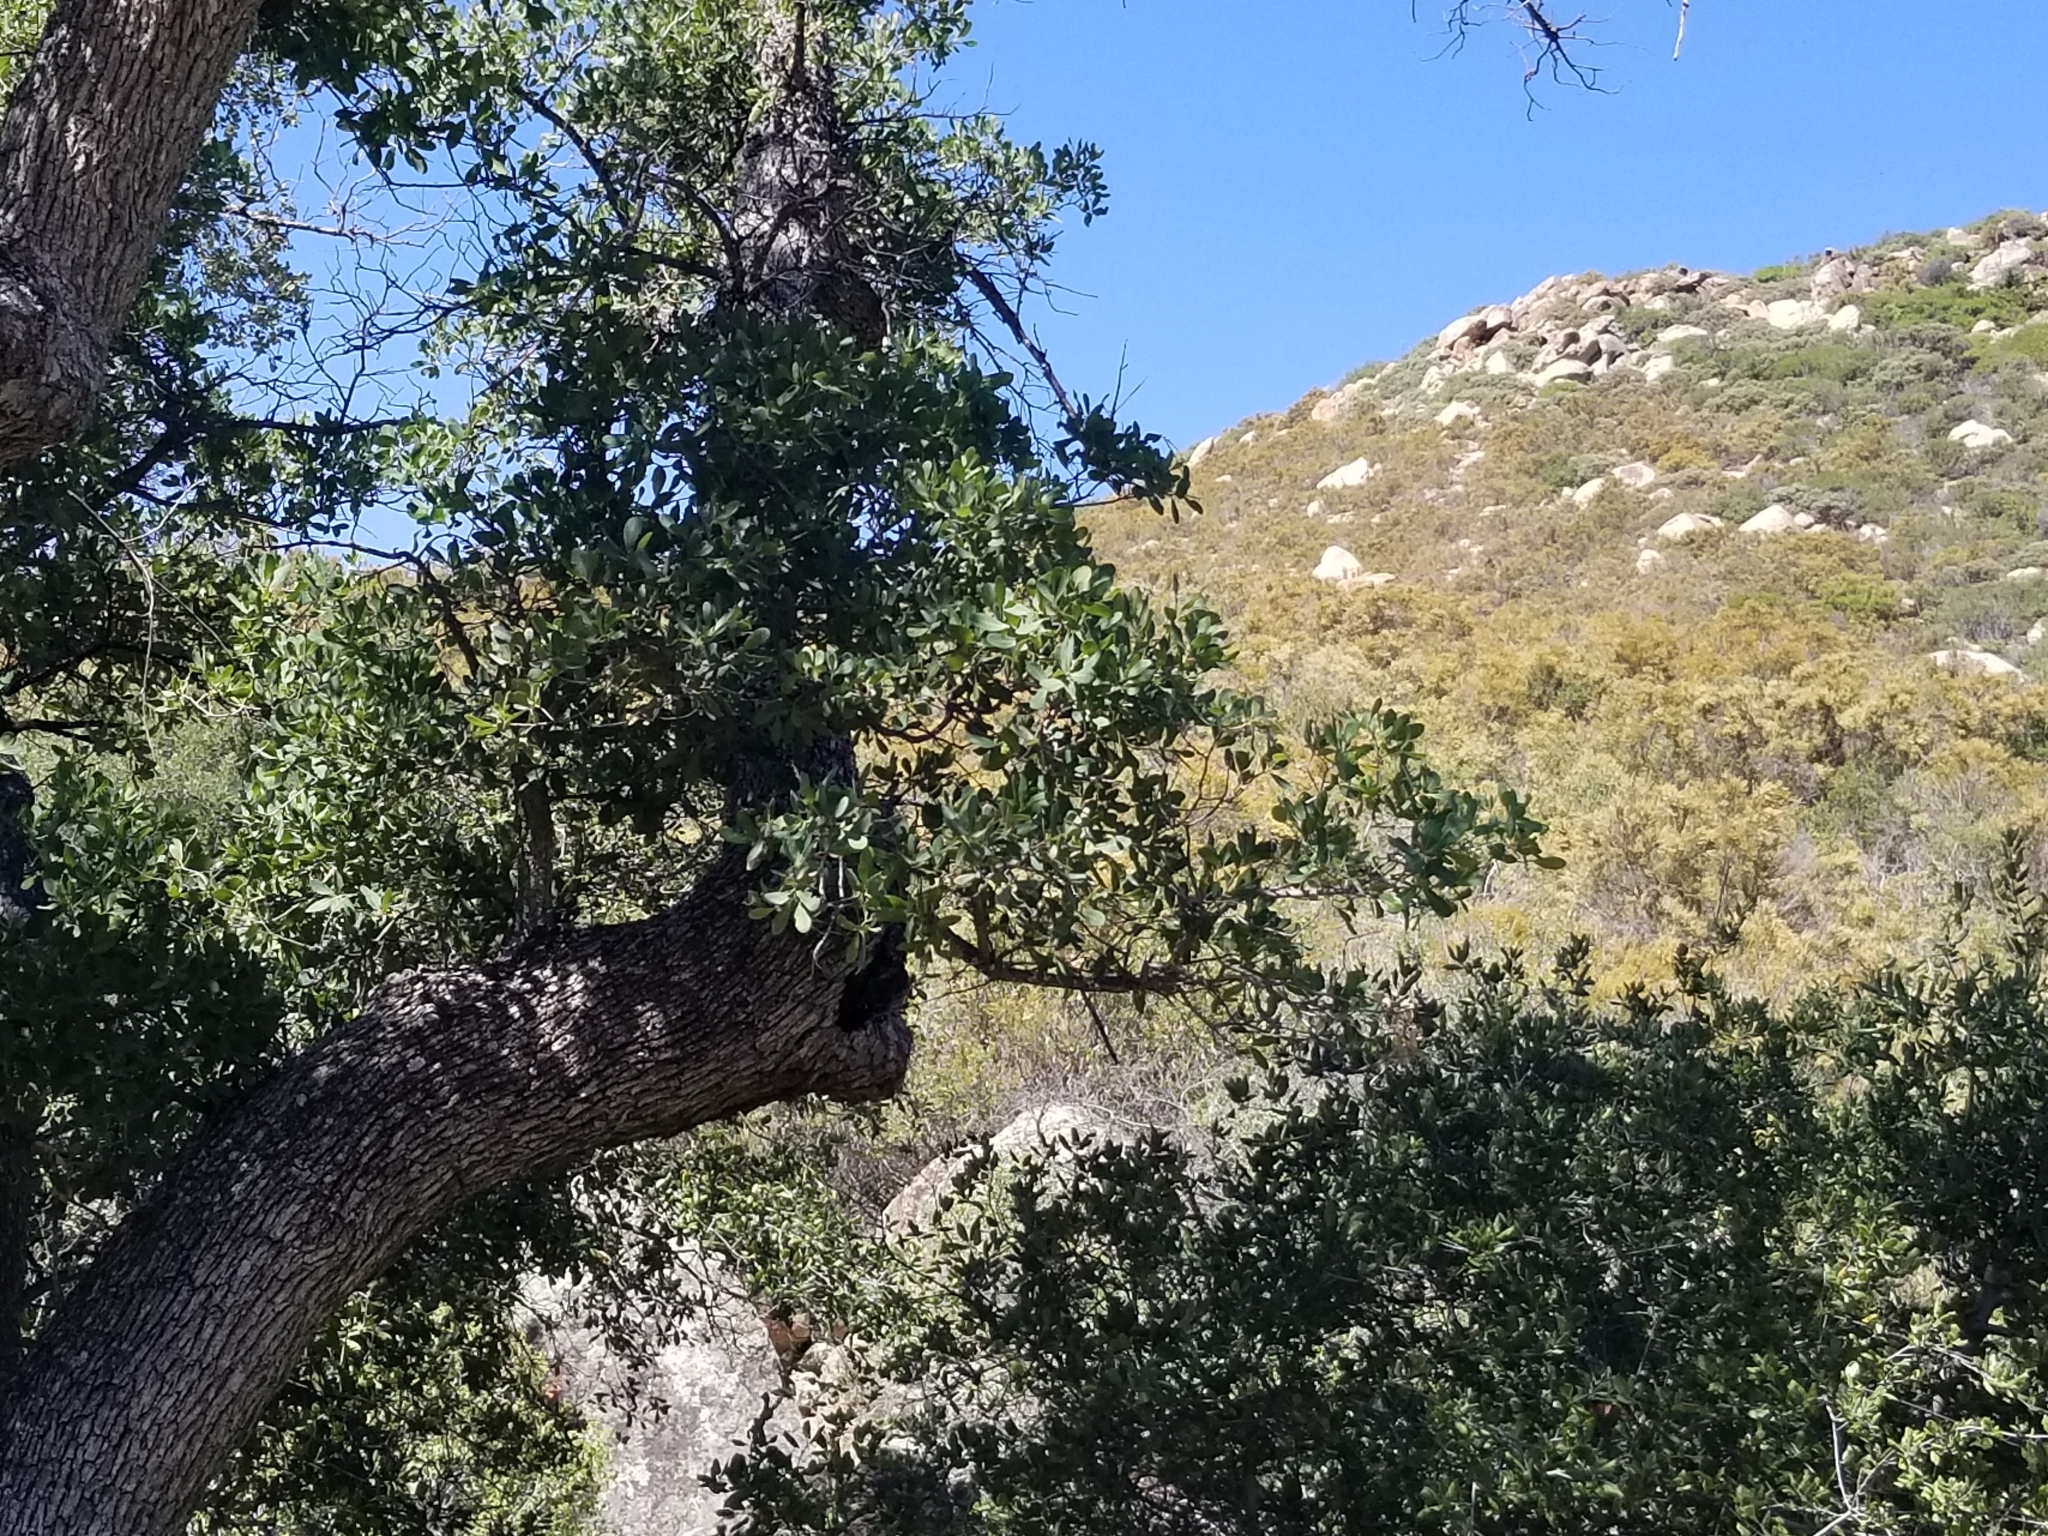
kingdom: Plantae
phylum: Tracheophyta
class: Magnoliopsida
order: Fagales
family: Fagaceae
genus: Quercus
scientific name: Quercus engelmannii
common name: Engelmann oak
